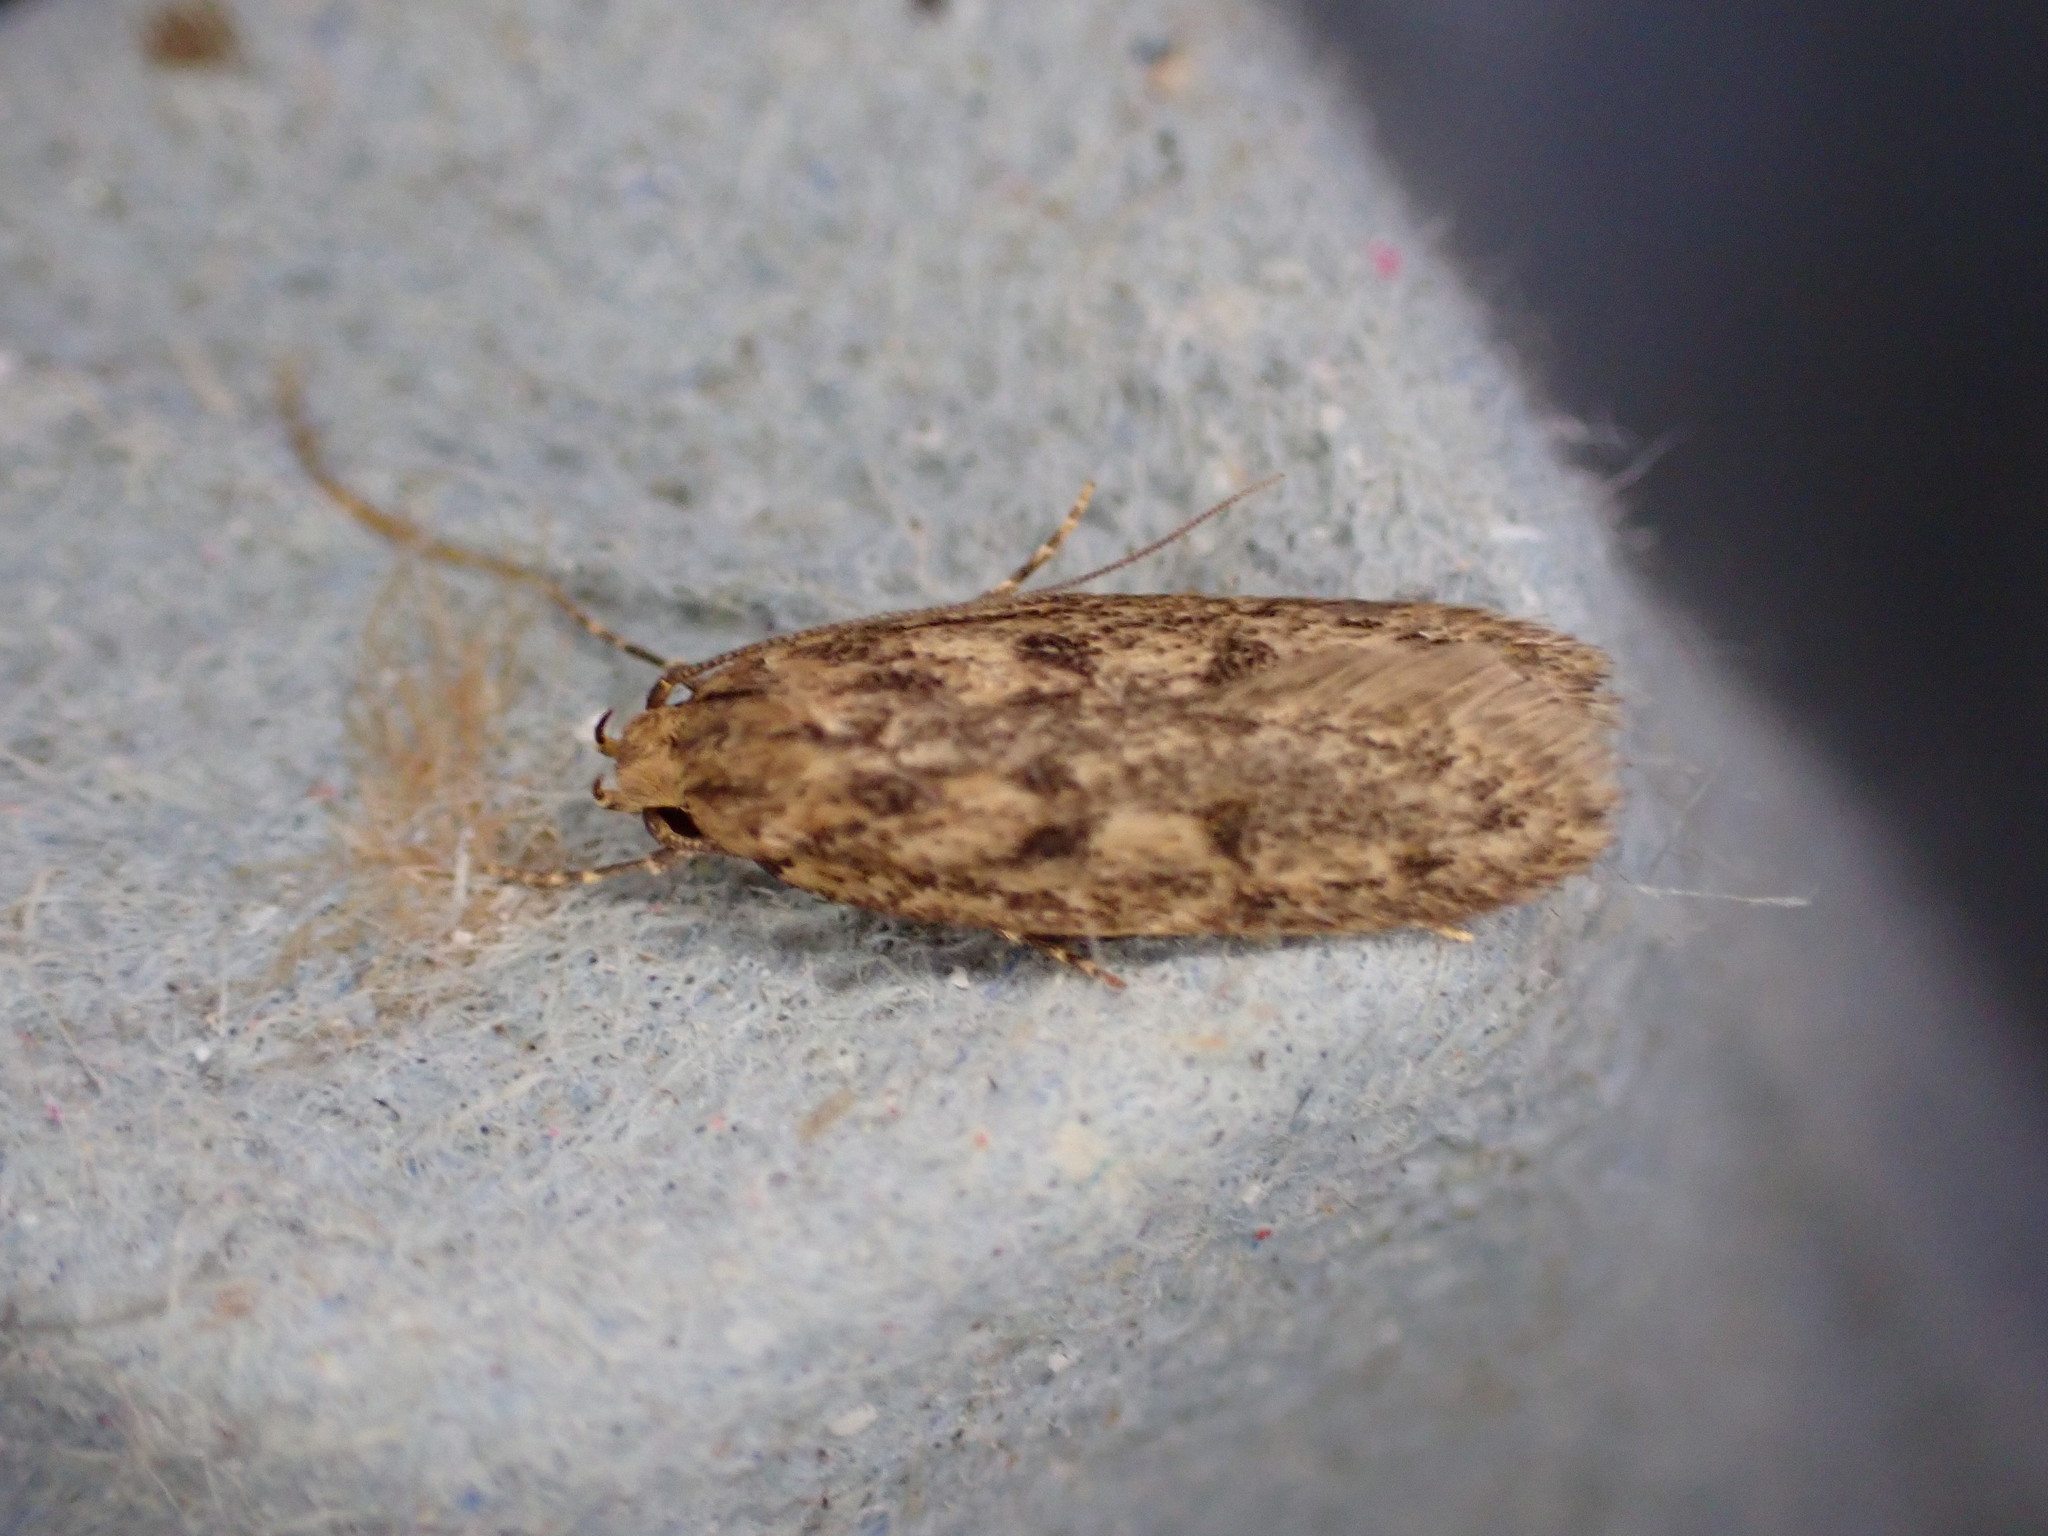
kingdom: Animalia
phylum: Arthropoda
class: Insecta
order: Lepidoptera
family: Oecophoridae
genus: Hofmannophila
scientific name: Hofmannophila pseudospretella
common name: Brown house moth
